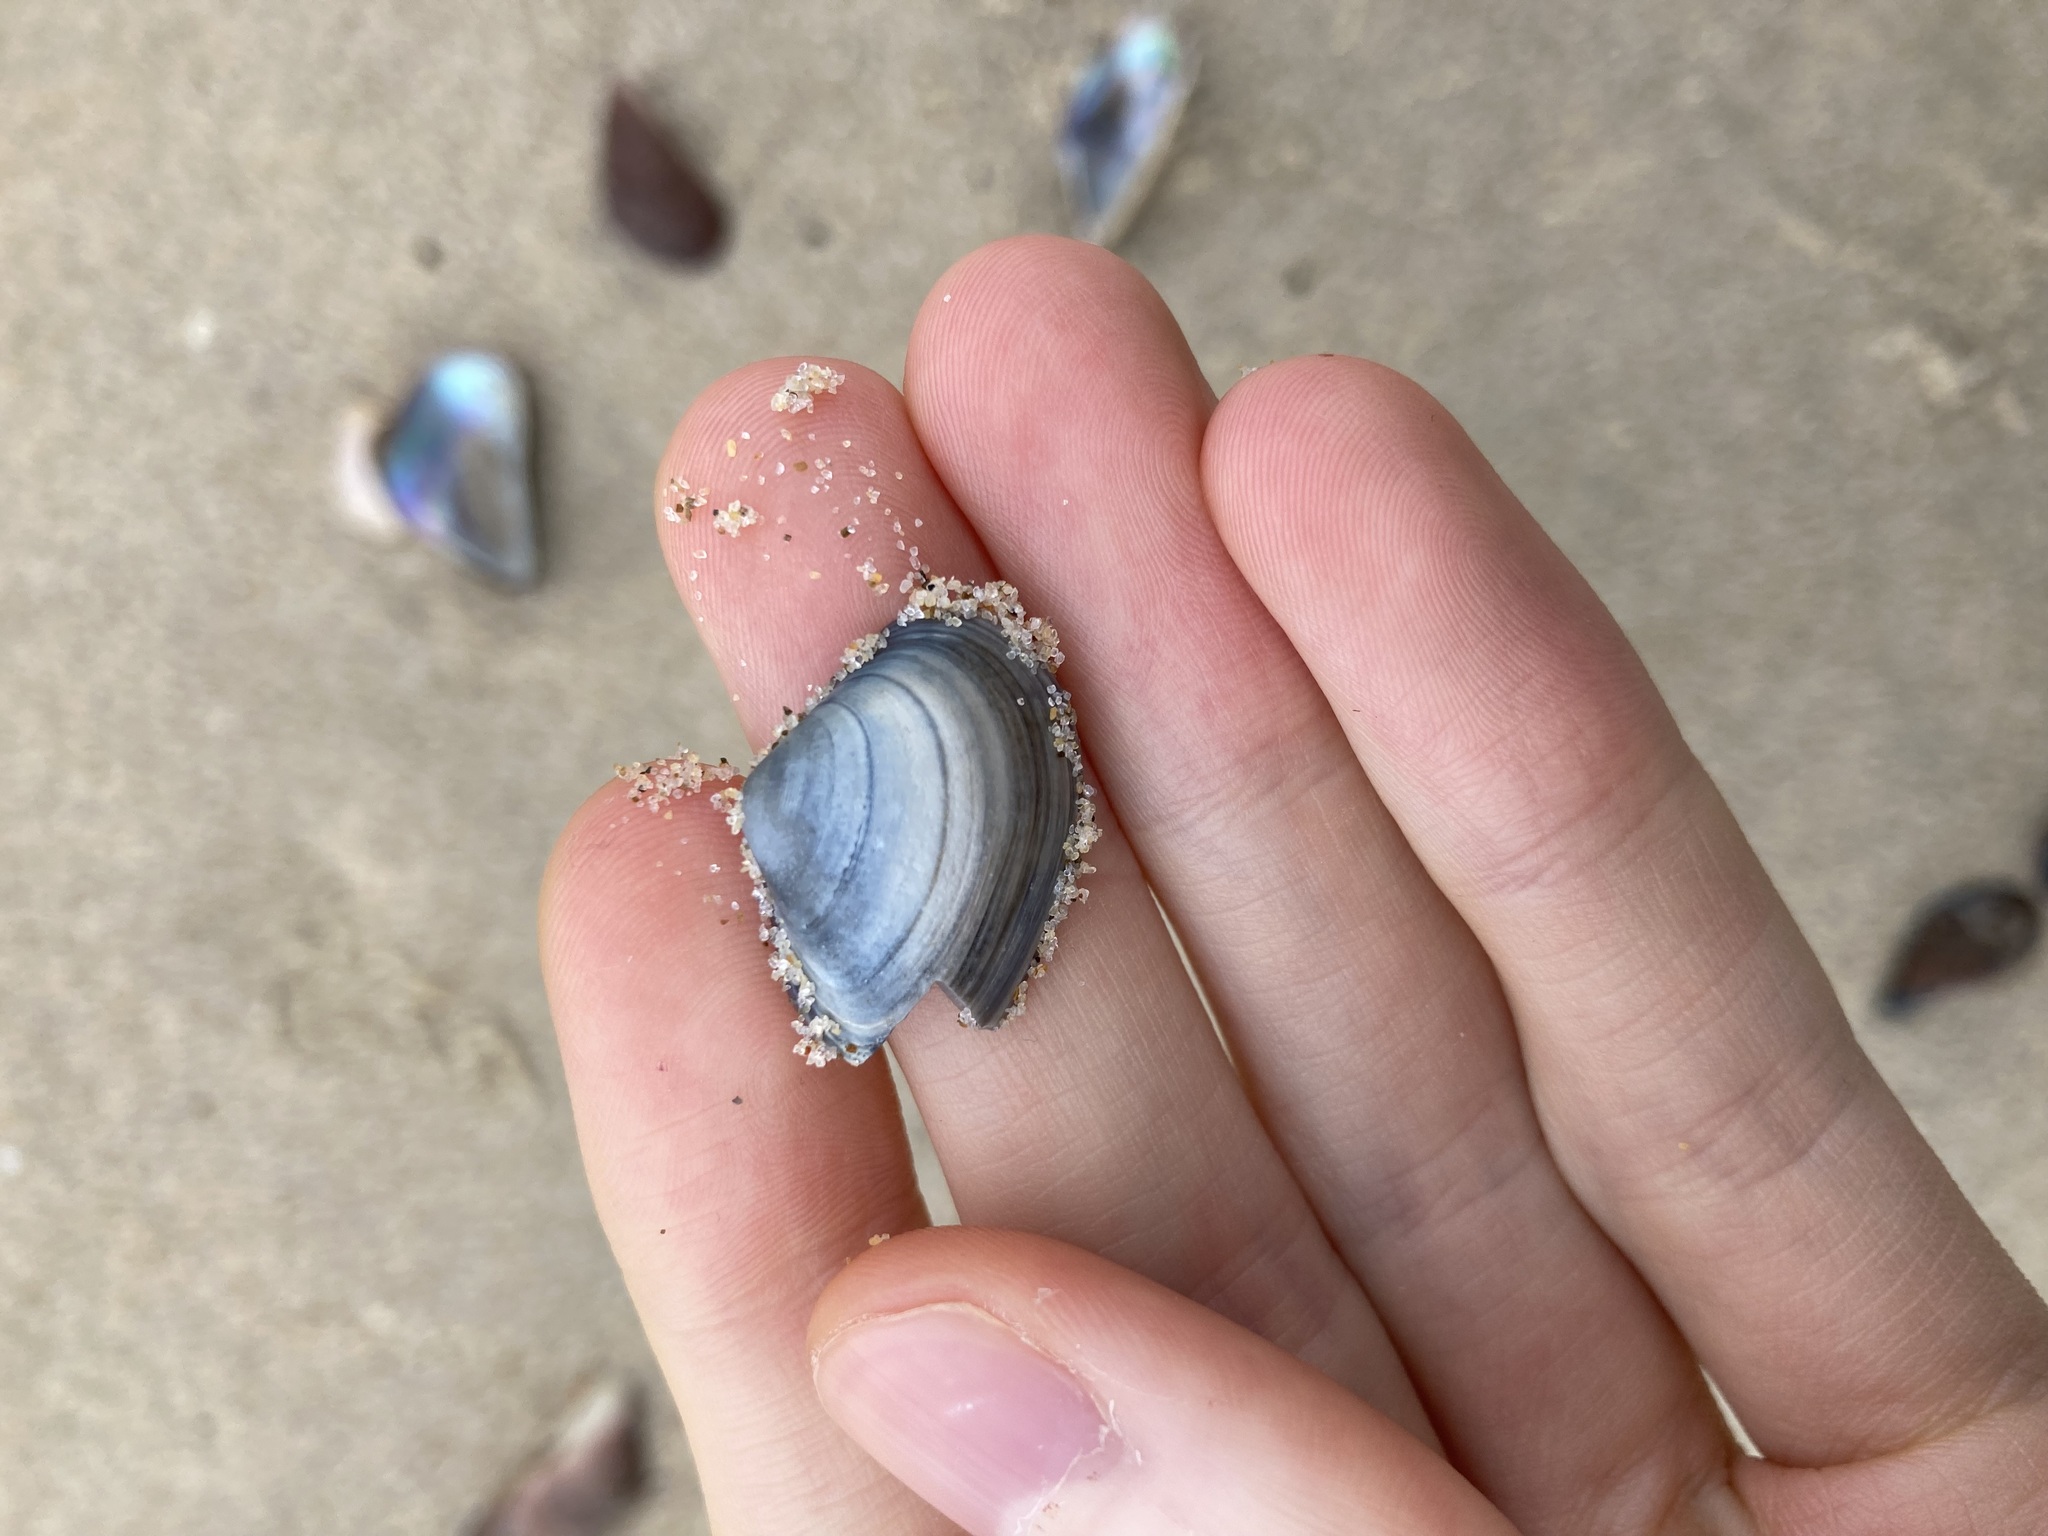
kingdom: Animalia
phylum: Mollusca
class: Bivalvia
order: Venerida
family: Mactridae
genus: Spisula
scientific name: Spisula trigonella
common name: Trigonal mactra
